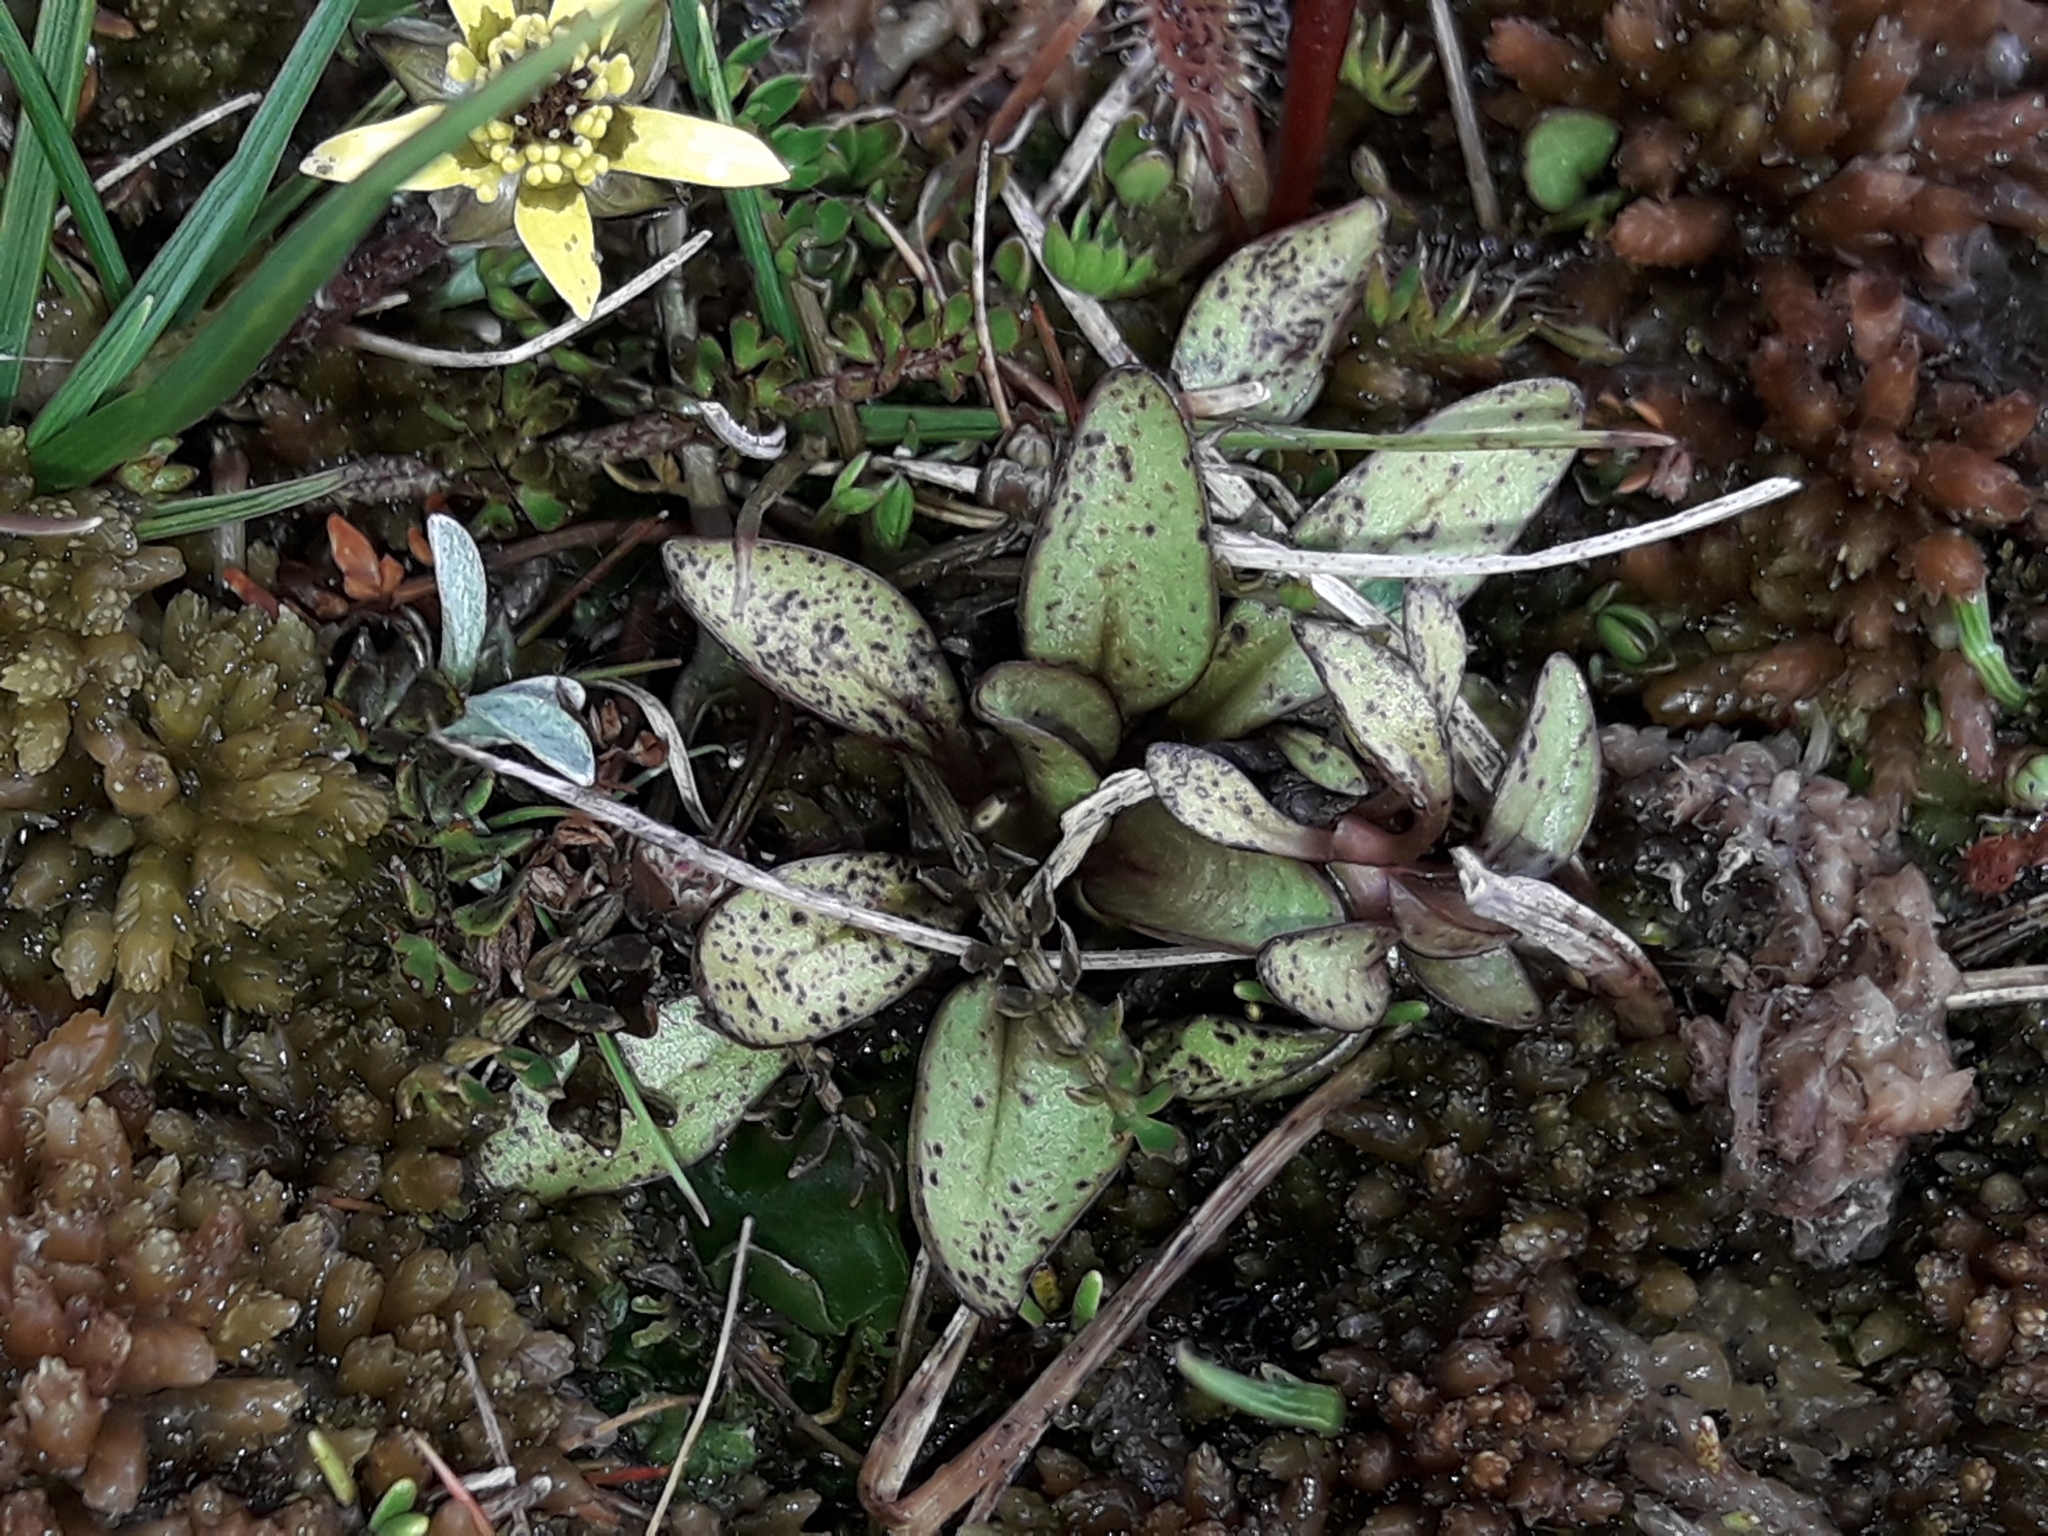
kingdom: Plantae
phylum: Tracheophyta
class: Magnoliopsida
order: Gentianales
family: Gentianaceae
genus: Gentianella
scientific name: Gentianella amabilis
